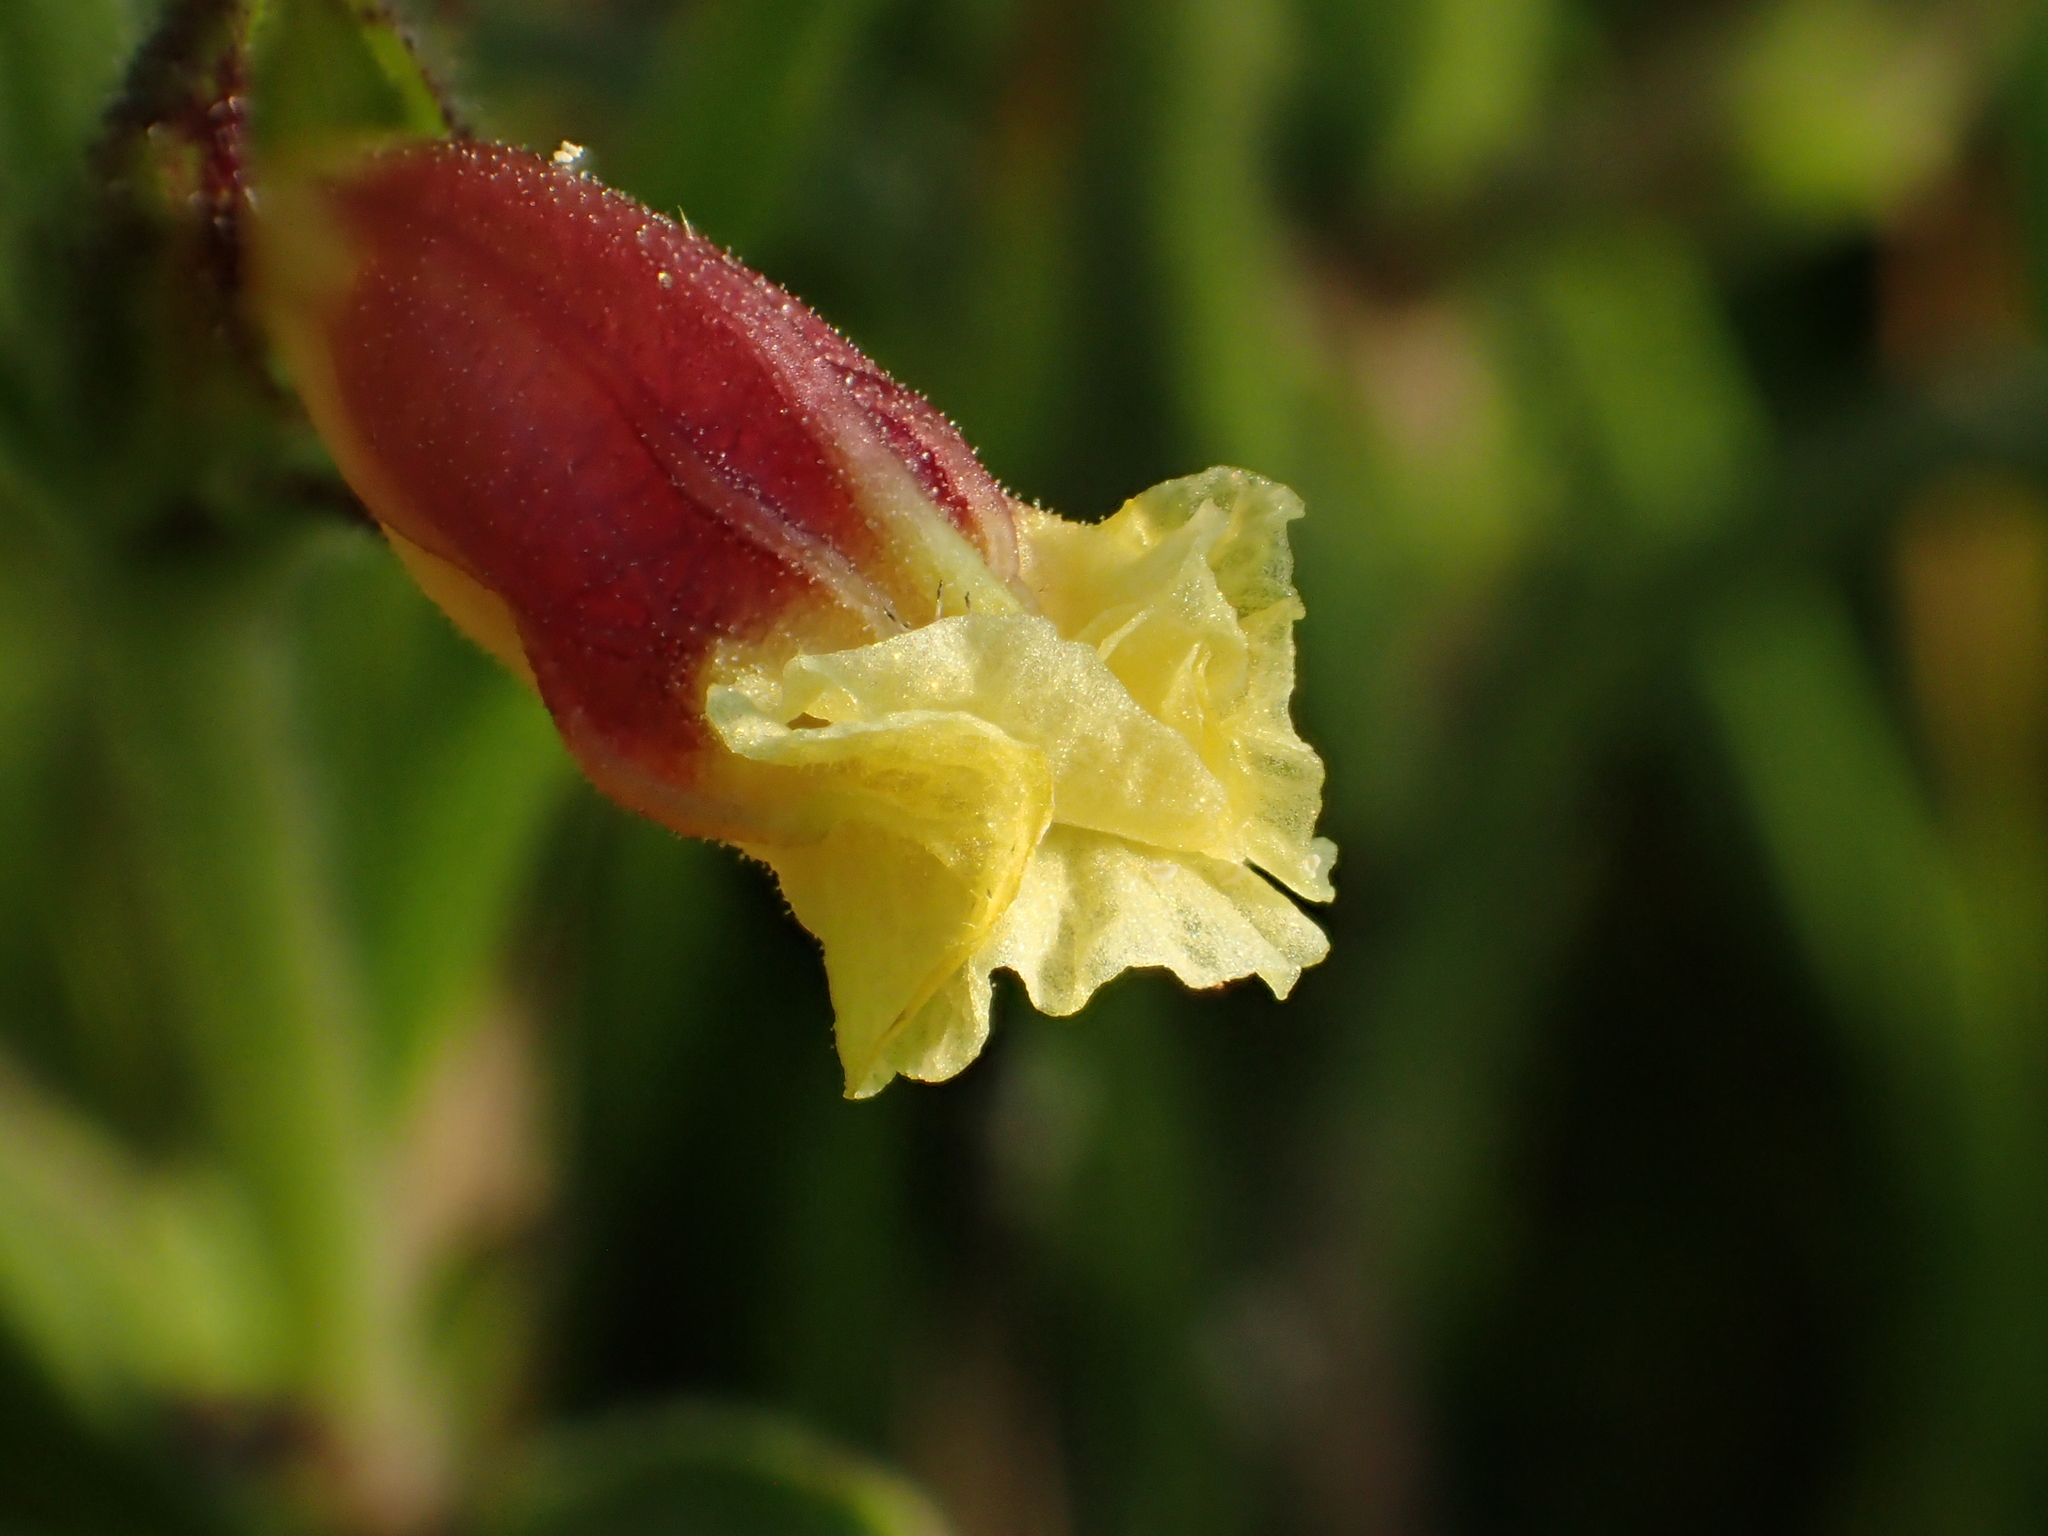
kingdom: Plantae
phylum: Tracheophyta
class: Magnoliopsida
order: Lamiales
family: Orobanchaceae
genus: Centranthera
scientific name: Centranthera cochinchinensis
